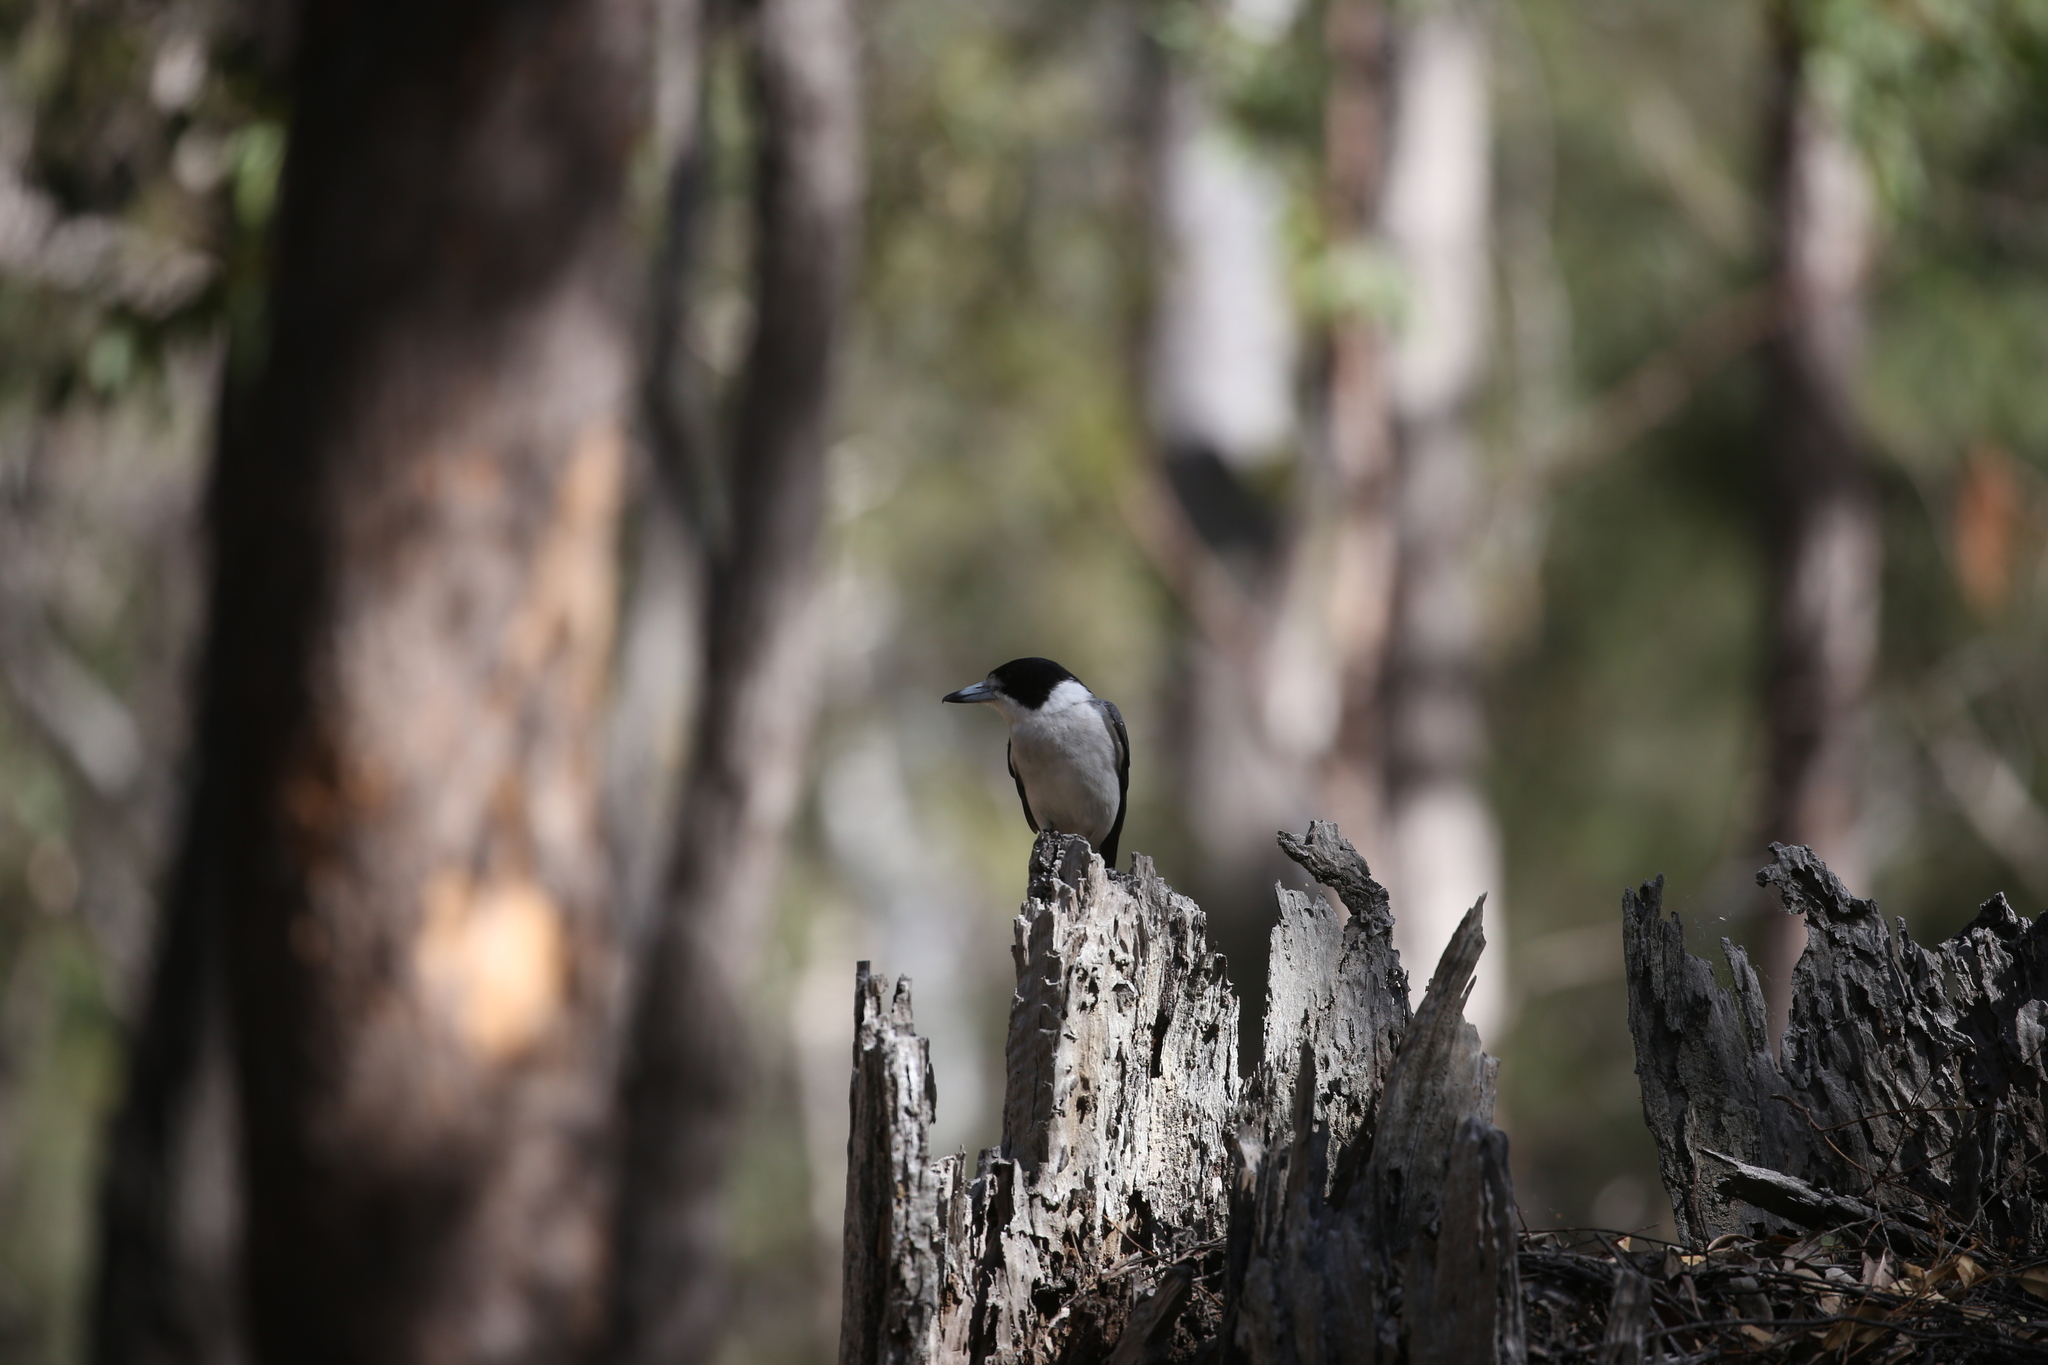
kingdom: Animalia
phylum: Chordata
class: Aves
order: Passeriformes
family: Cracticidae
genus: Cracticus
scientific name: Cracticus torquatus
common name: Grey butcherbird
